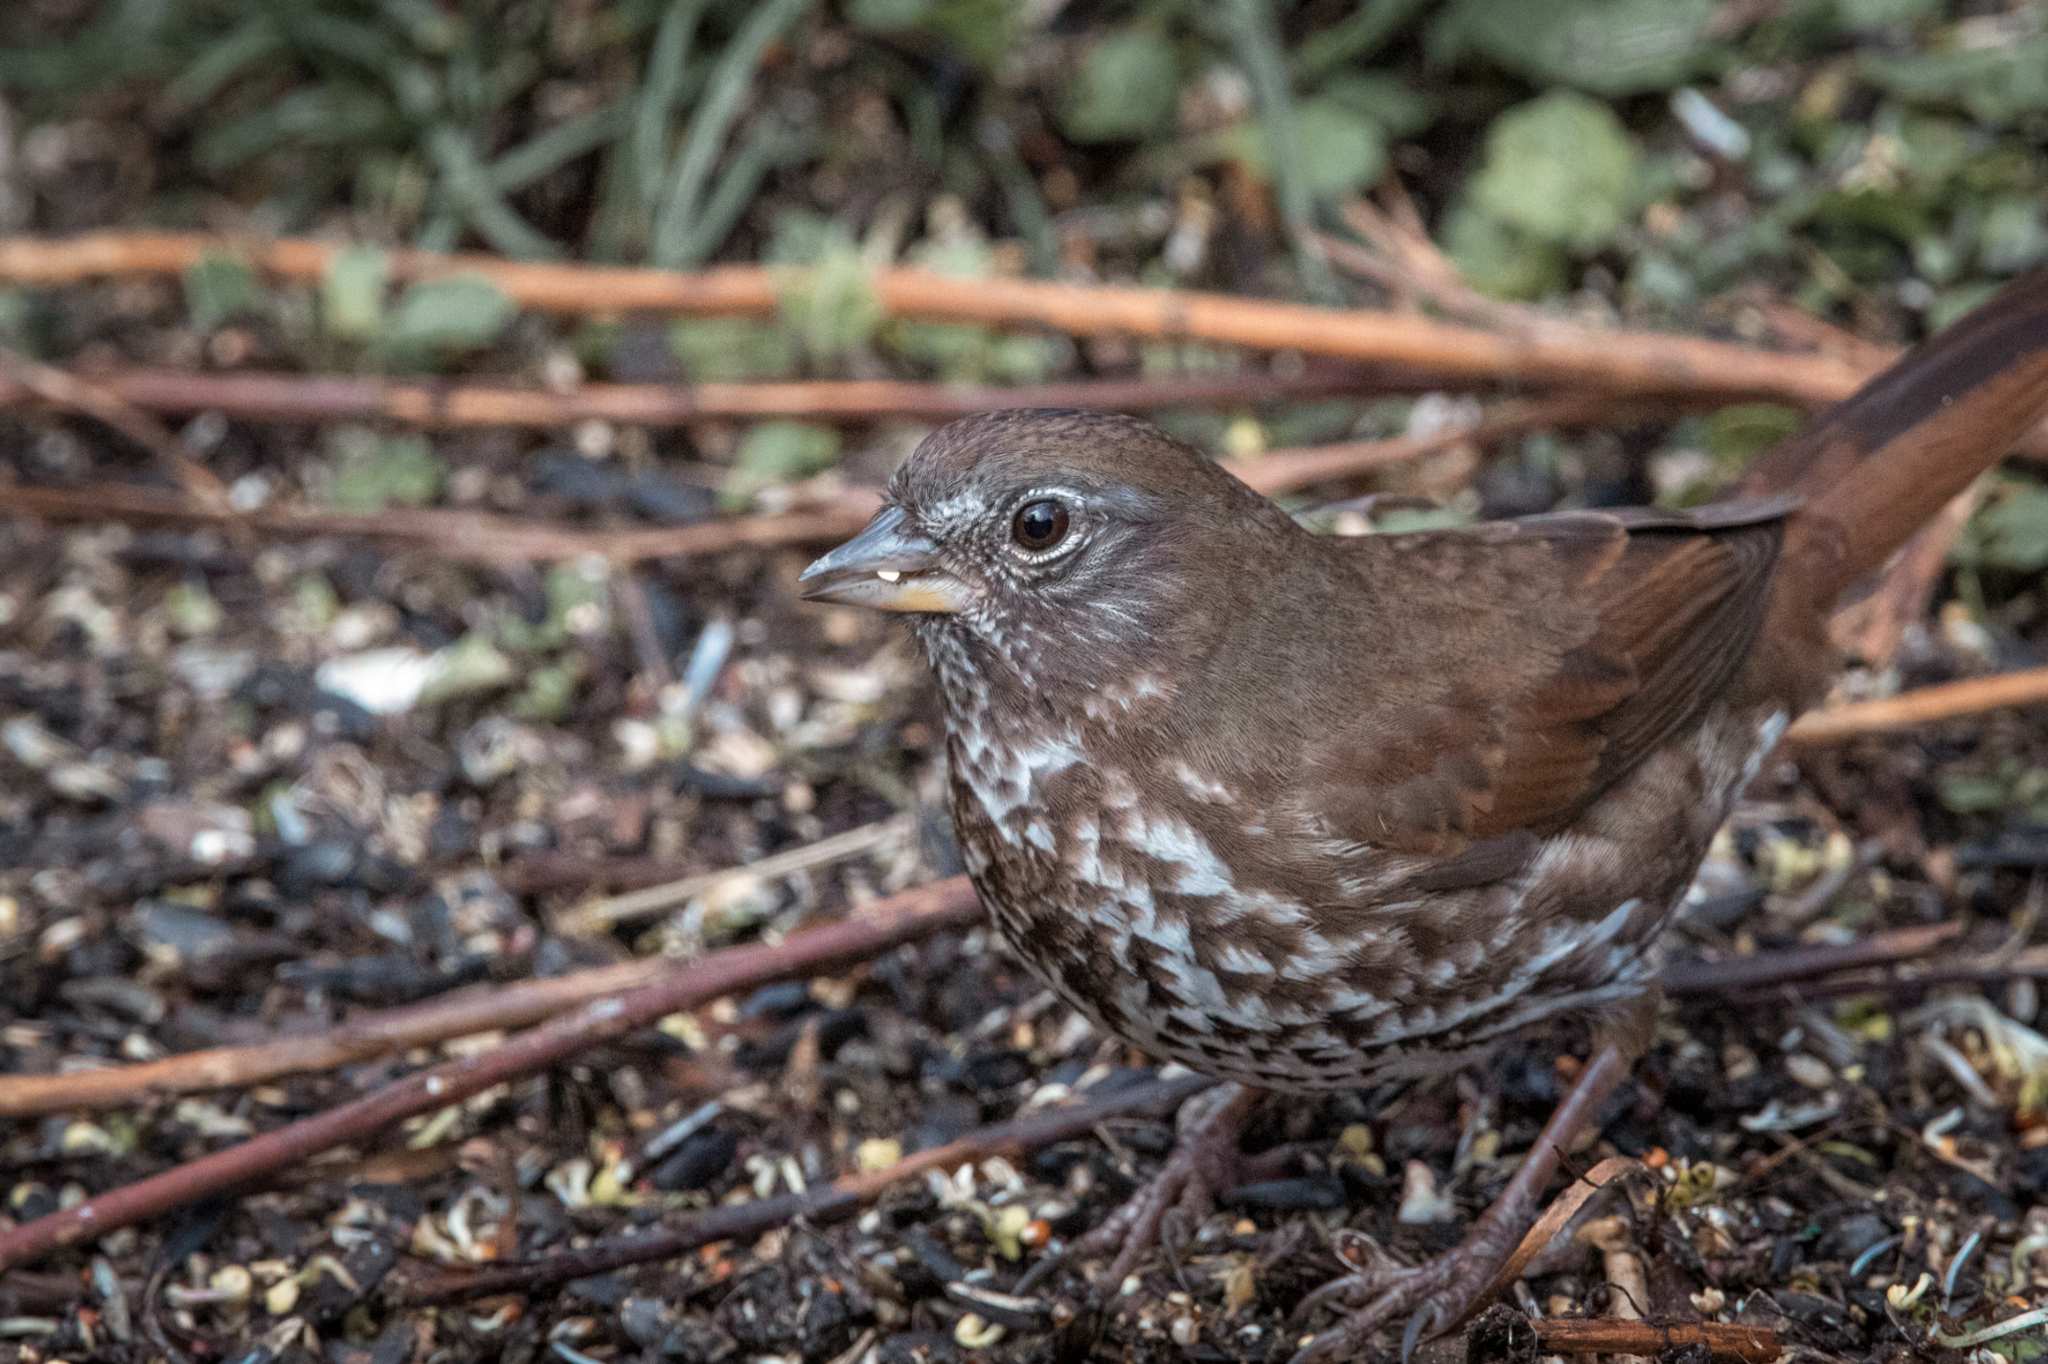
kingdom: Animalia
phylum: Chordata
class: Aves
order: Passeriformes
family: Passerellidae
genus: Passerella
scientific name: Passerella iliaca
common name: Fox sparrow
